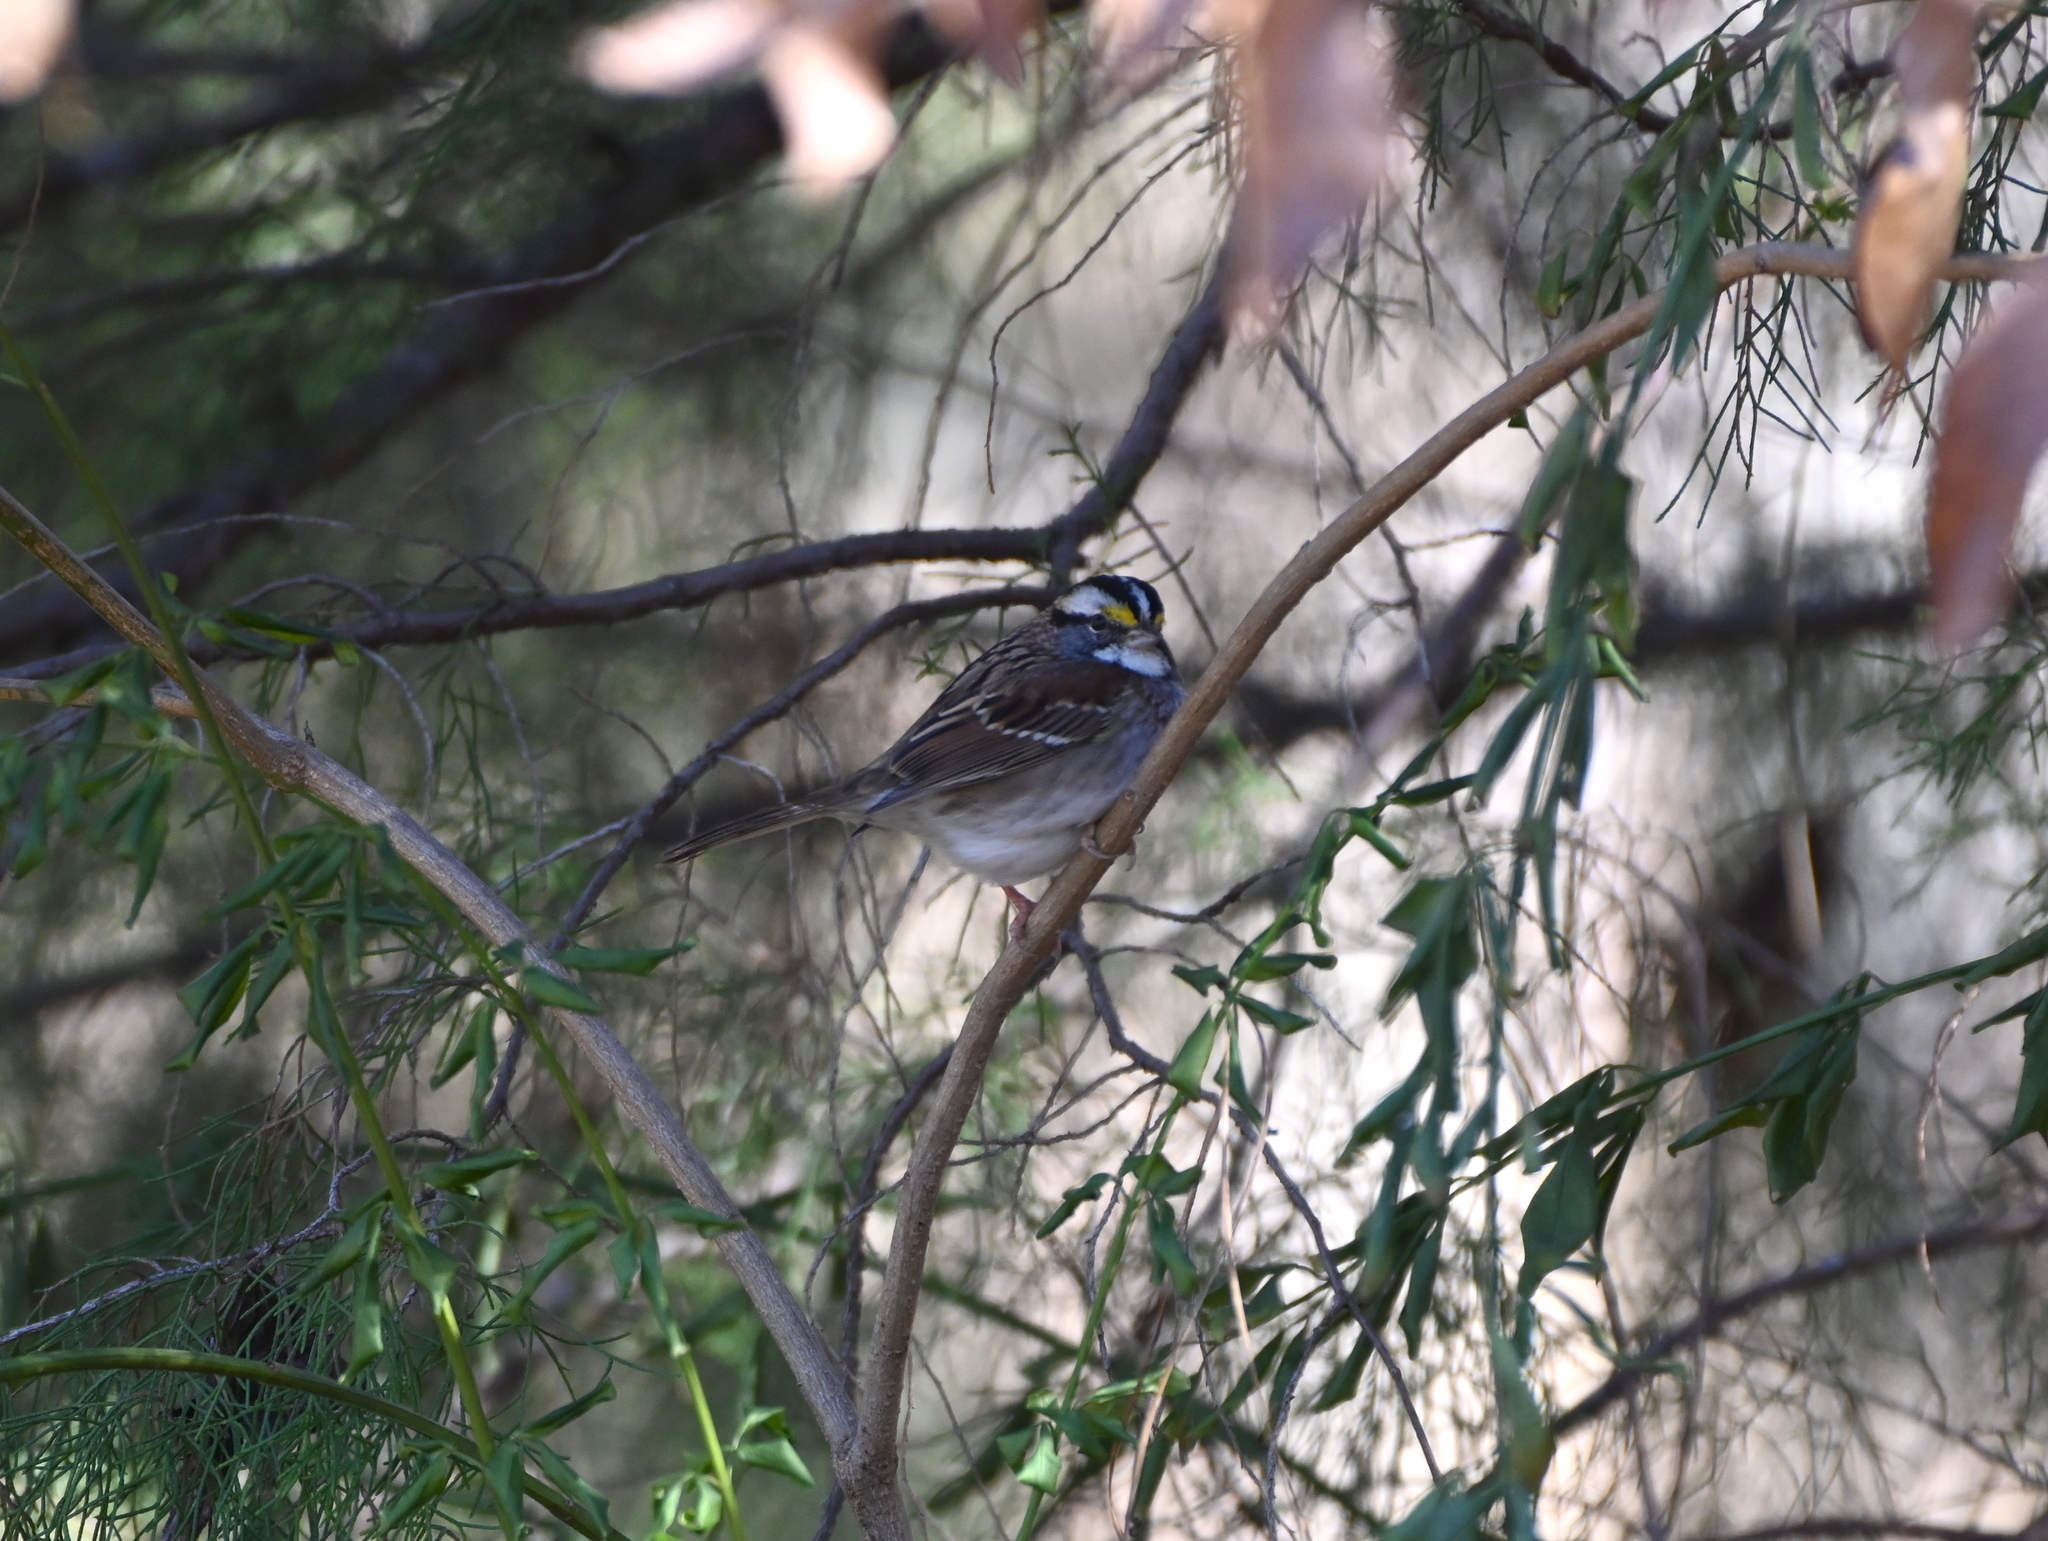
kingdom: Animalia
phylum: Chordata
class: Aves
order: Passeriformes
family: Passerellidae
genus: Zonotrichia
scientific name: Zonotrichia albicollis
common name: White-throated sparrow
